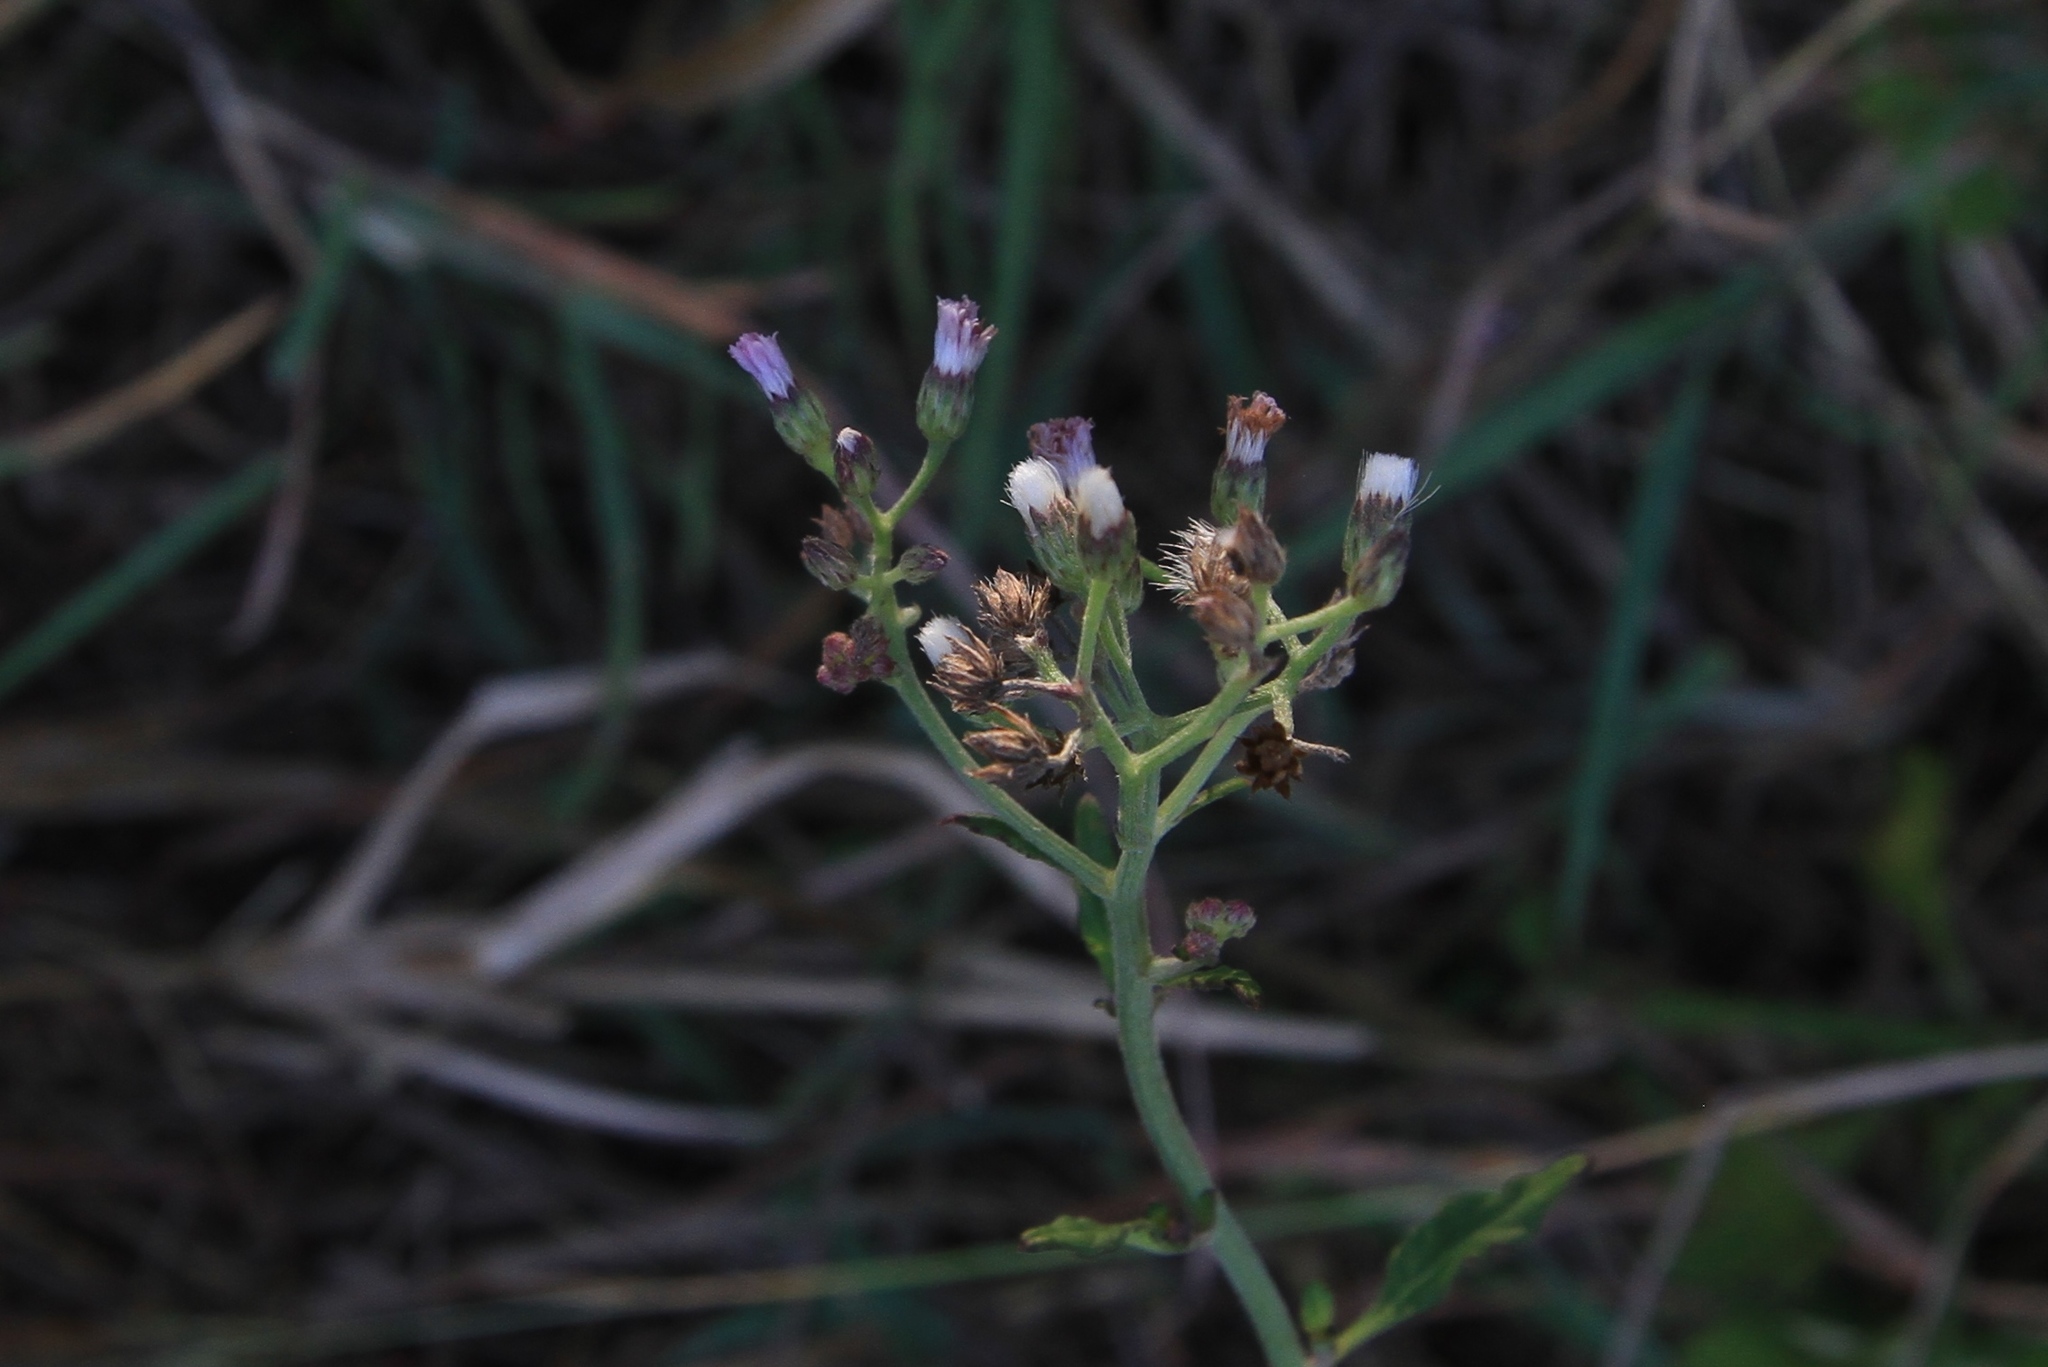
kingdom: Plantae
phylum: Tracheophyta
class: Magnoliopsida
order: Asterales
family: Asteraceae
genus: Cyanthillium
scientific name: Cyanthillium cinereum
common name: Little ironweed
